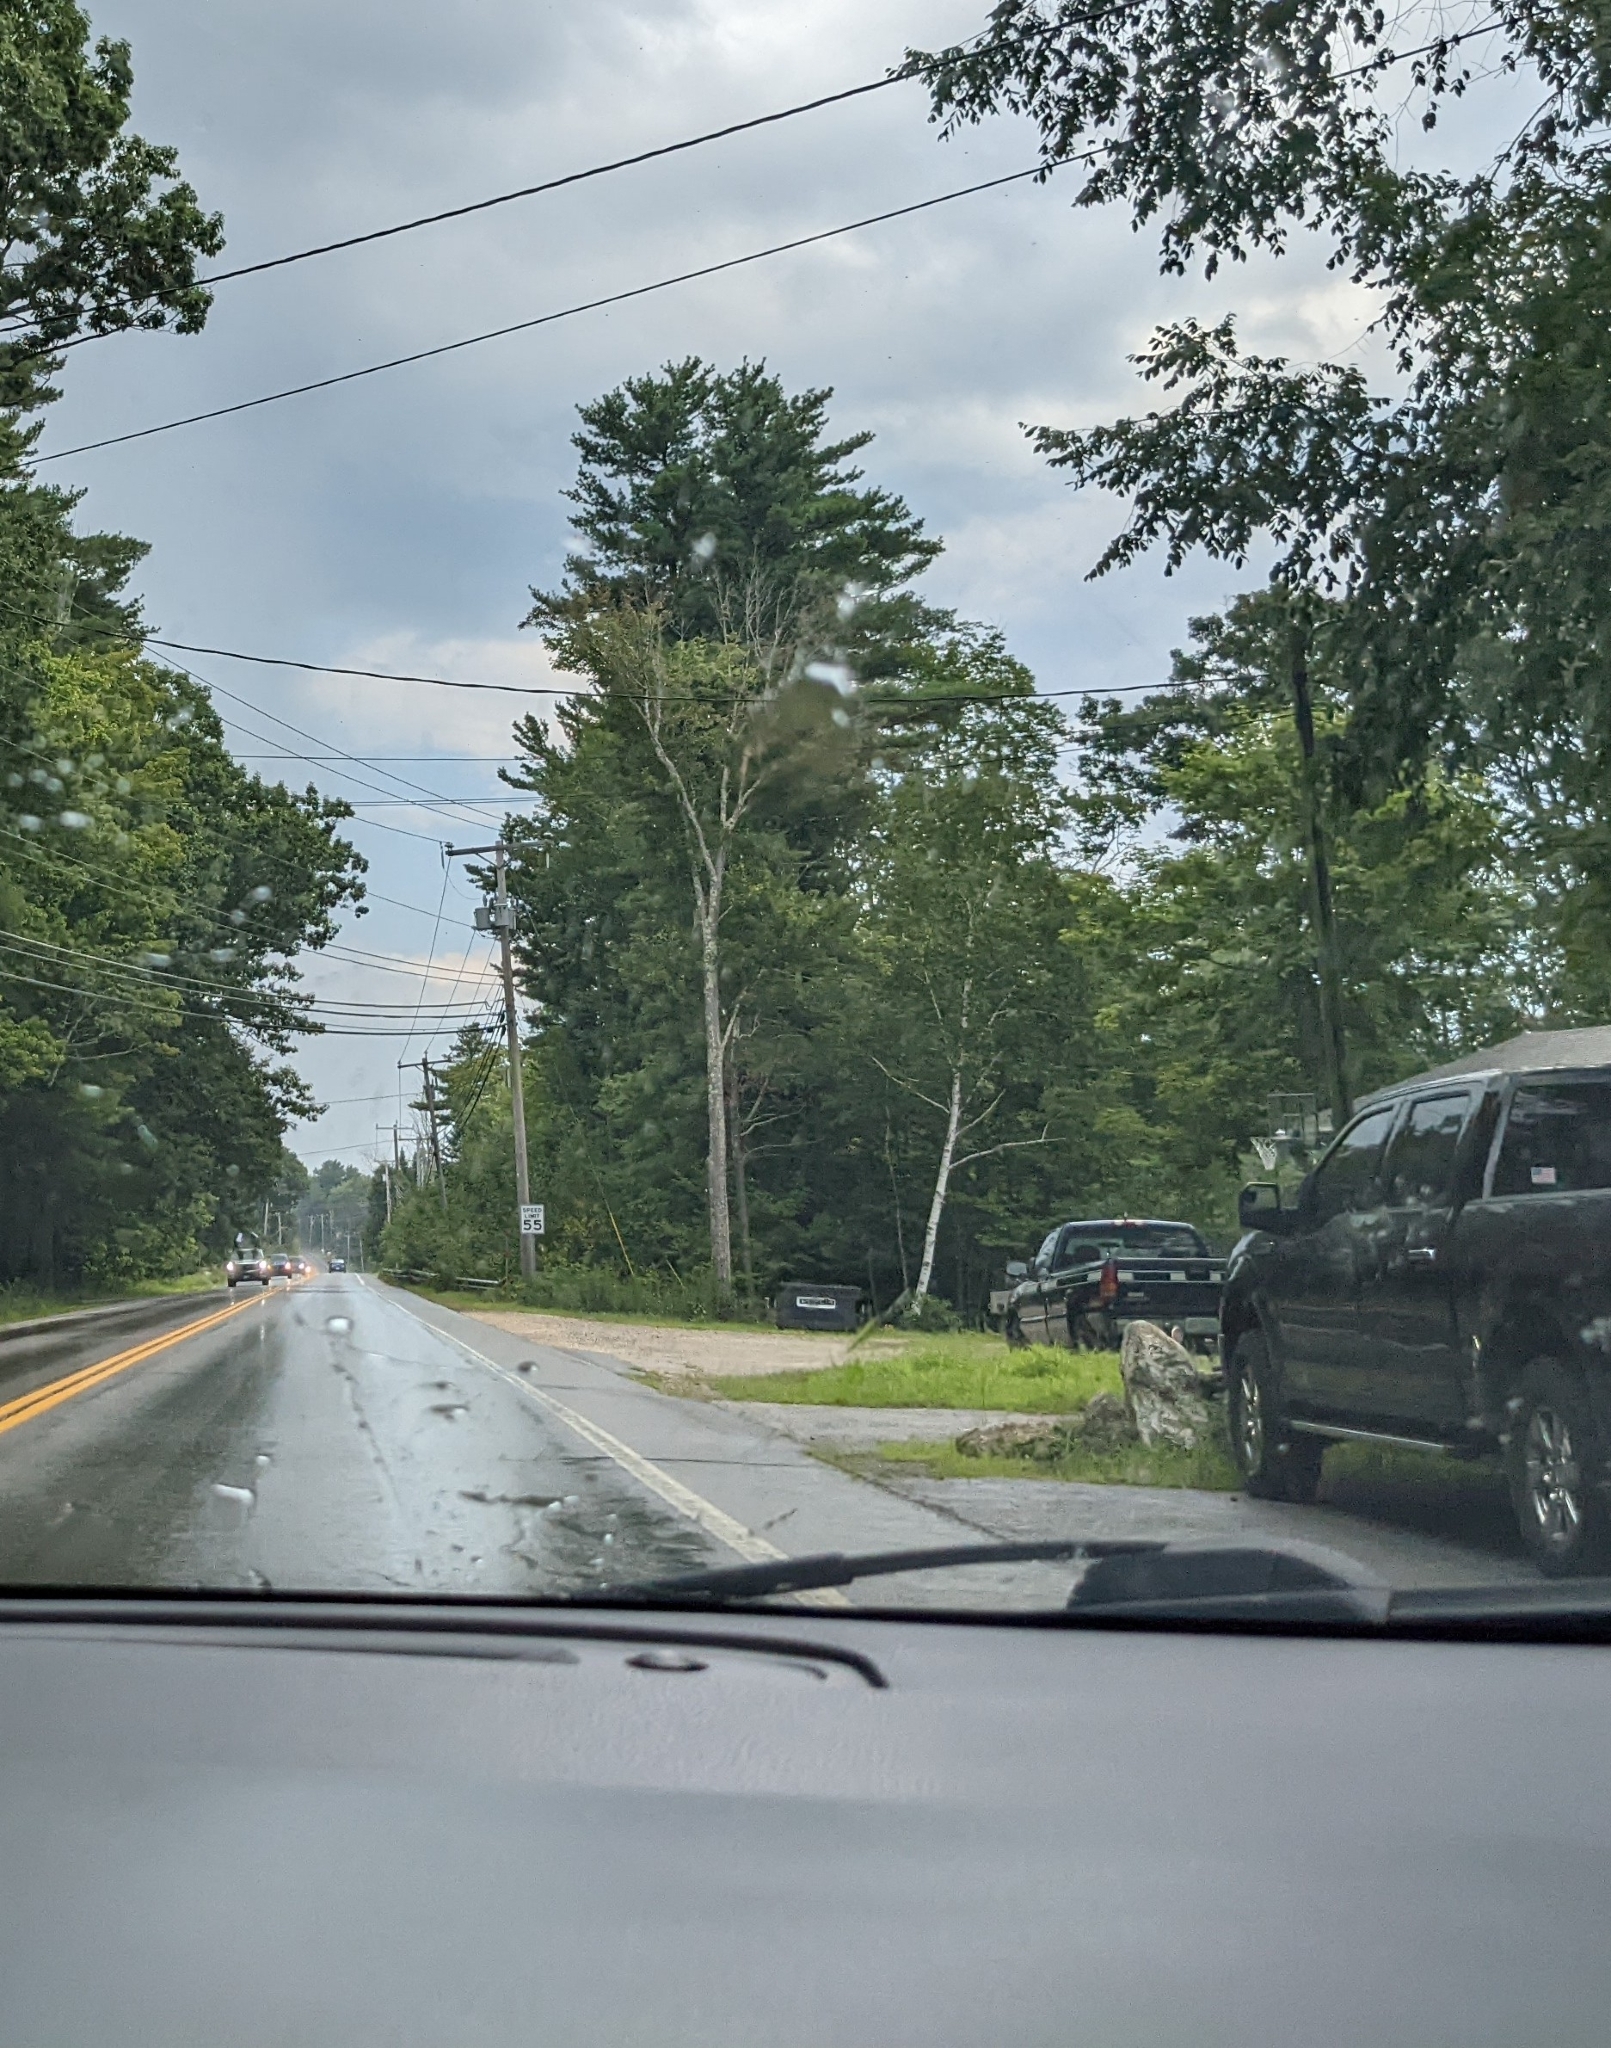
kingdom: Plantae
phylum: Tracheophyta
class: Pinopsida
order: Pinales
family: Pinaceae
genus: Pinus
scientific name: Pinus strobus
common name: Weymouth pine
